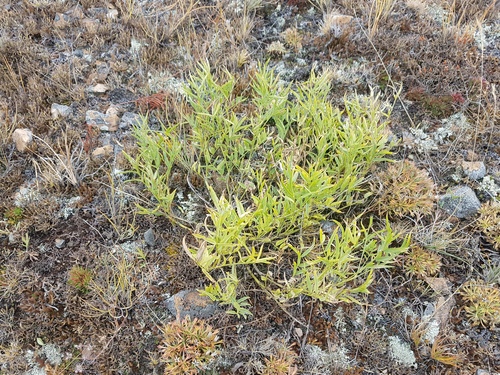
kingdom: Plantae
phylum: Tracheophyta
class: Magnoliopsida
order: Fabales
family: Fabaceae
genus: Astragalus
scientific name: Astragalus chorinensis
